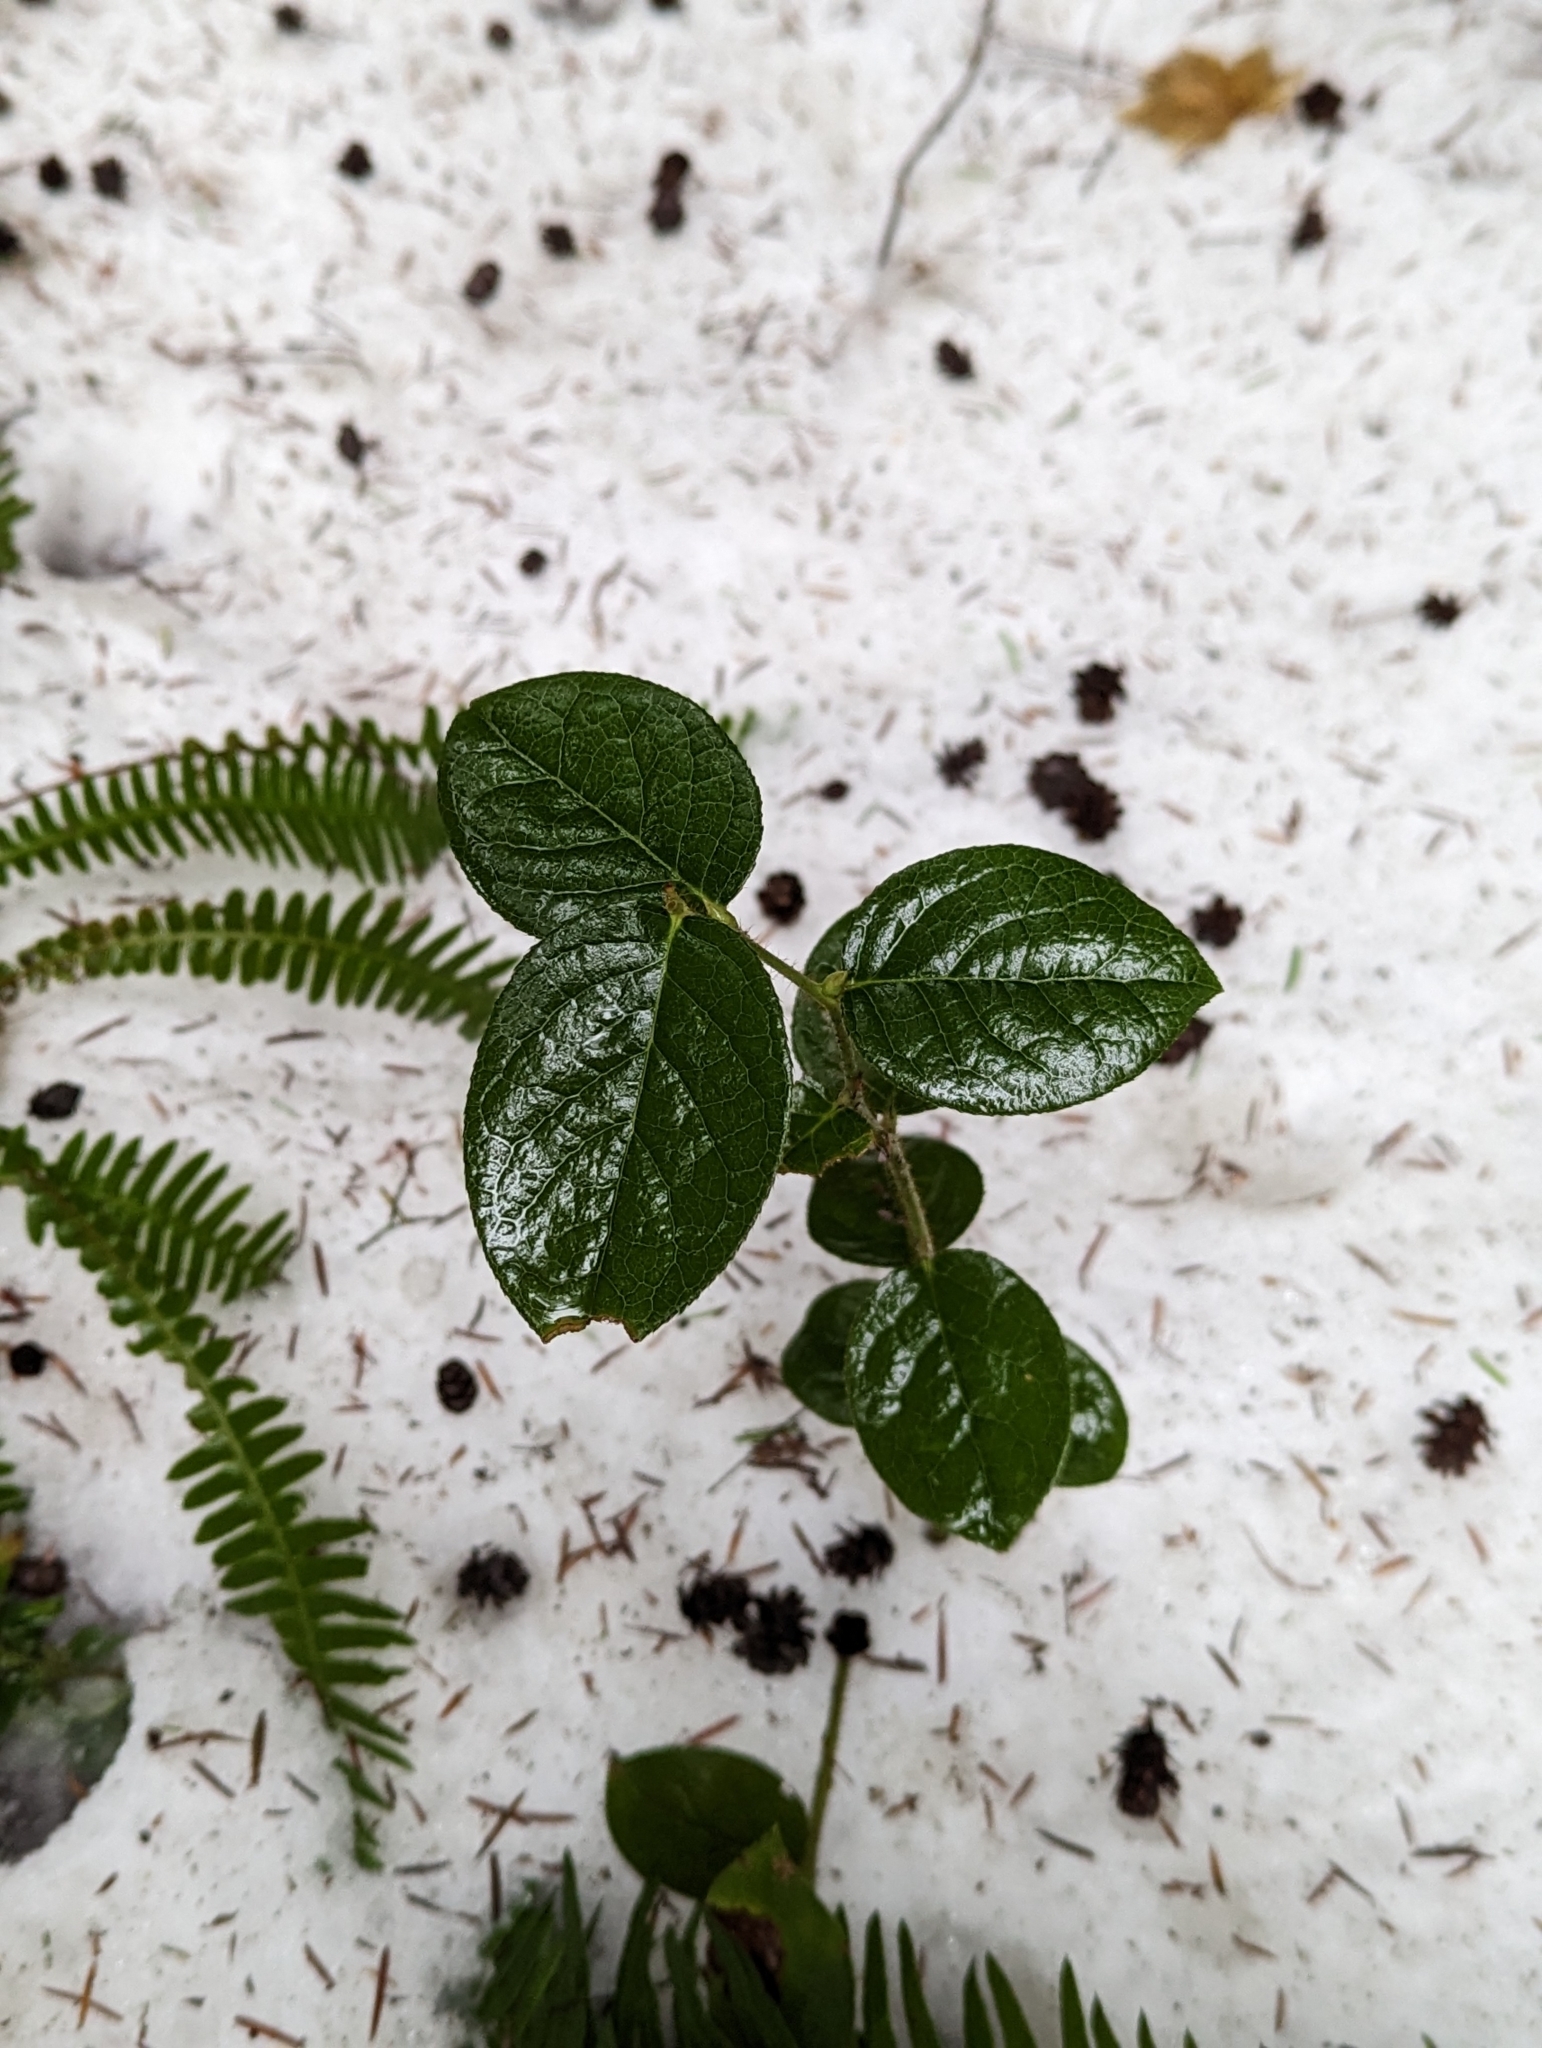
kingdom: Plantae
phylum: Tracheophyta
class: Magnoliopsida
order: Ericales
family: Ericaceae
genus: Gaultheria
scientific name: Gaultheria shallon
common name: Shallon
